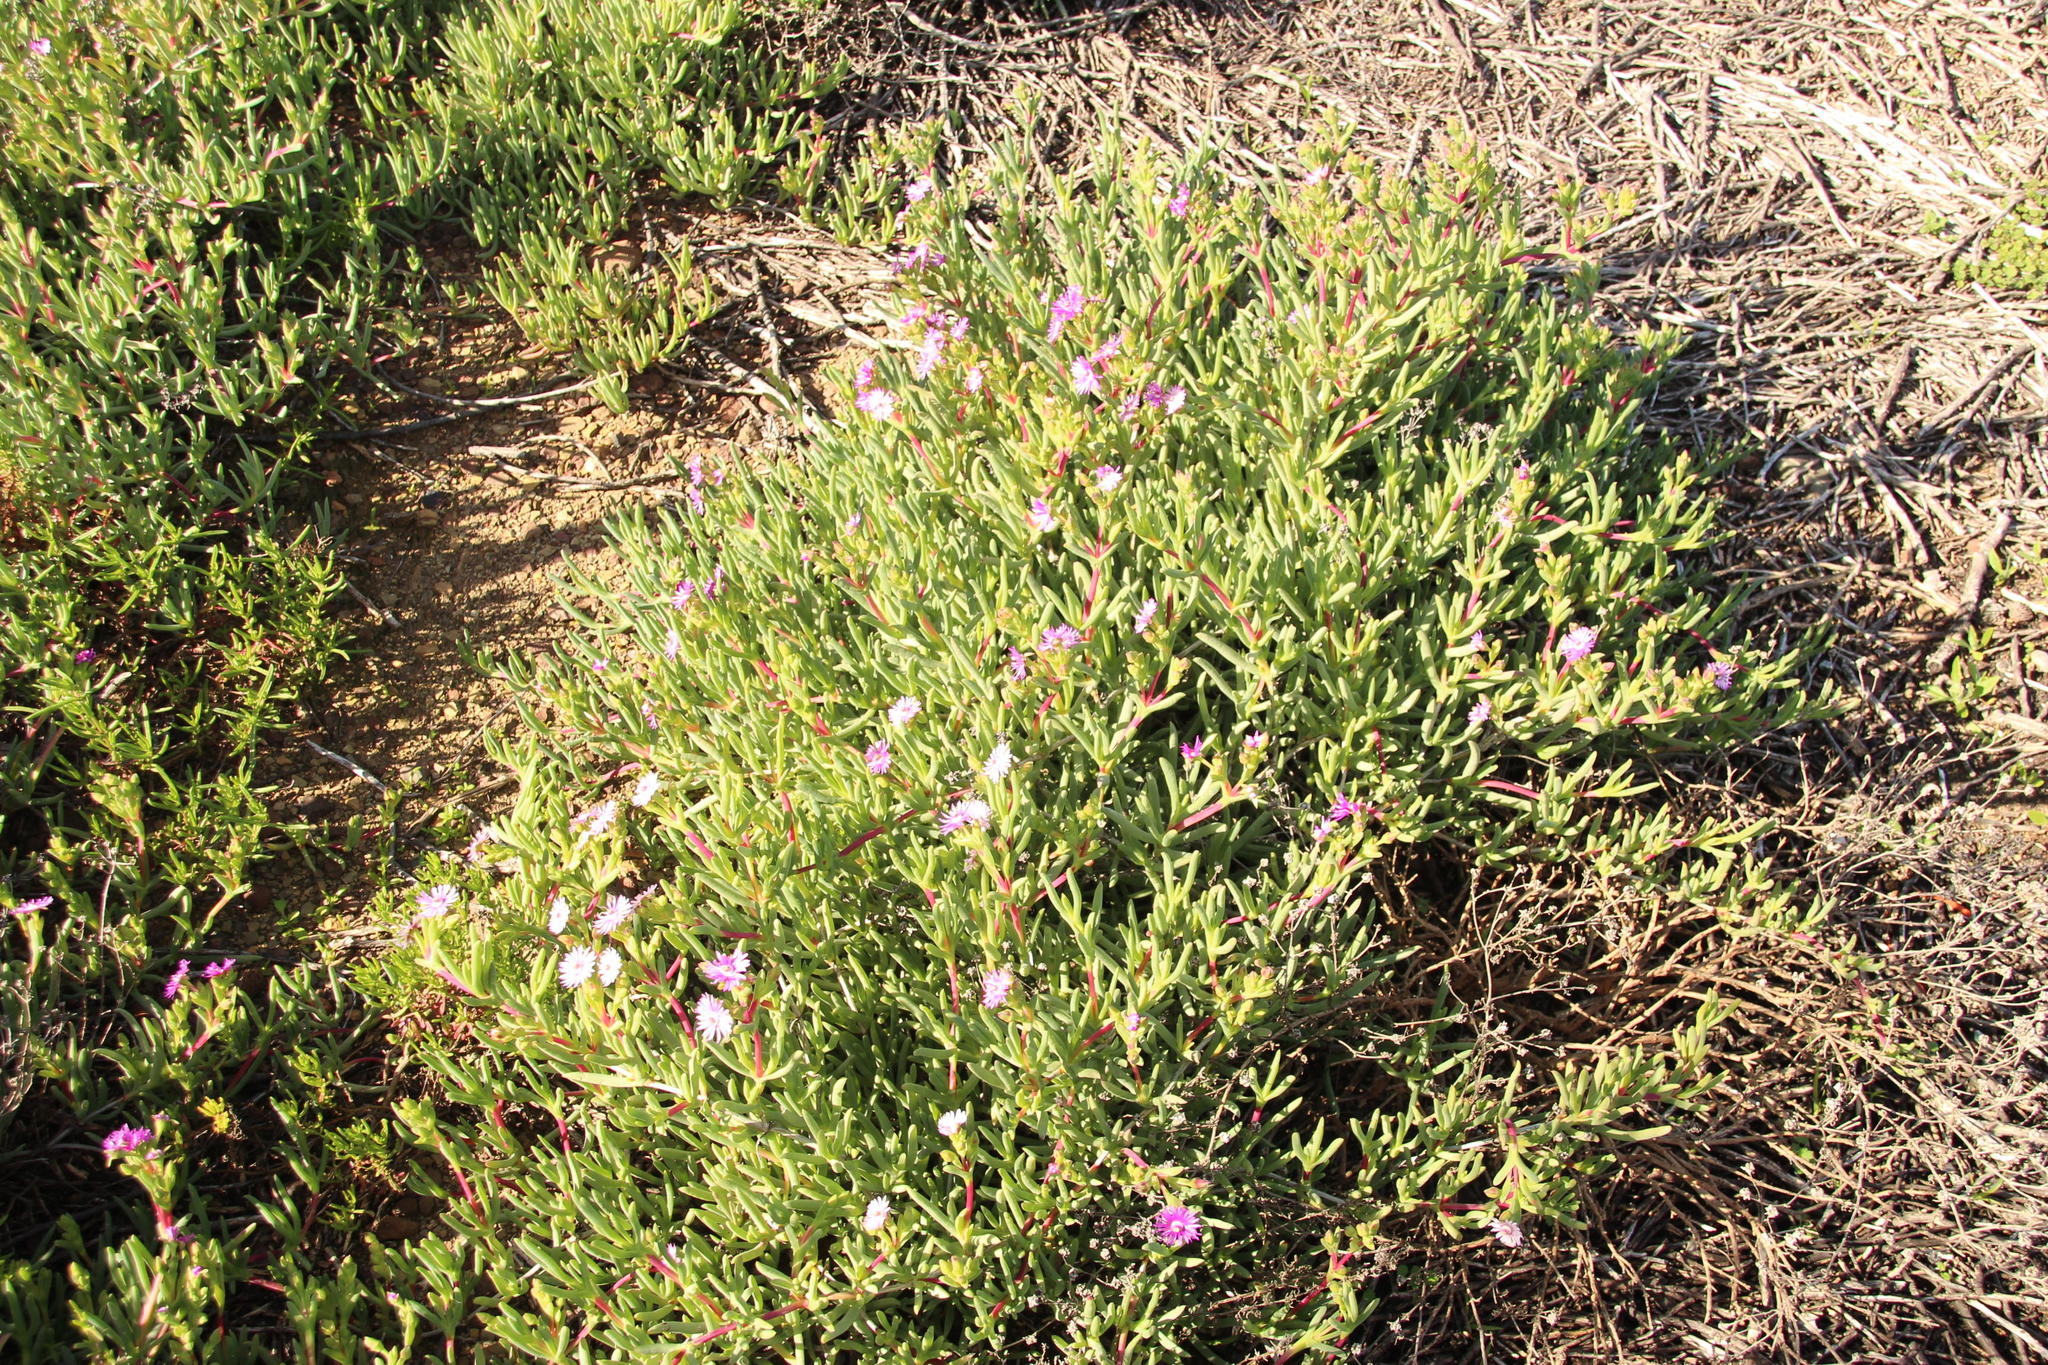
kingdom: Plantae
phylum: Tracheophyta
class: Magnoliopsida
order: Caryophyllales
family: Aizoaceae
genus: Ruschia
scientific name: Ruschia costata
